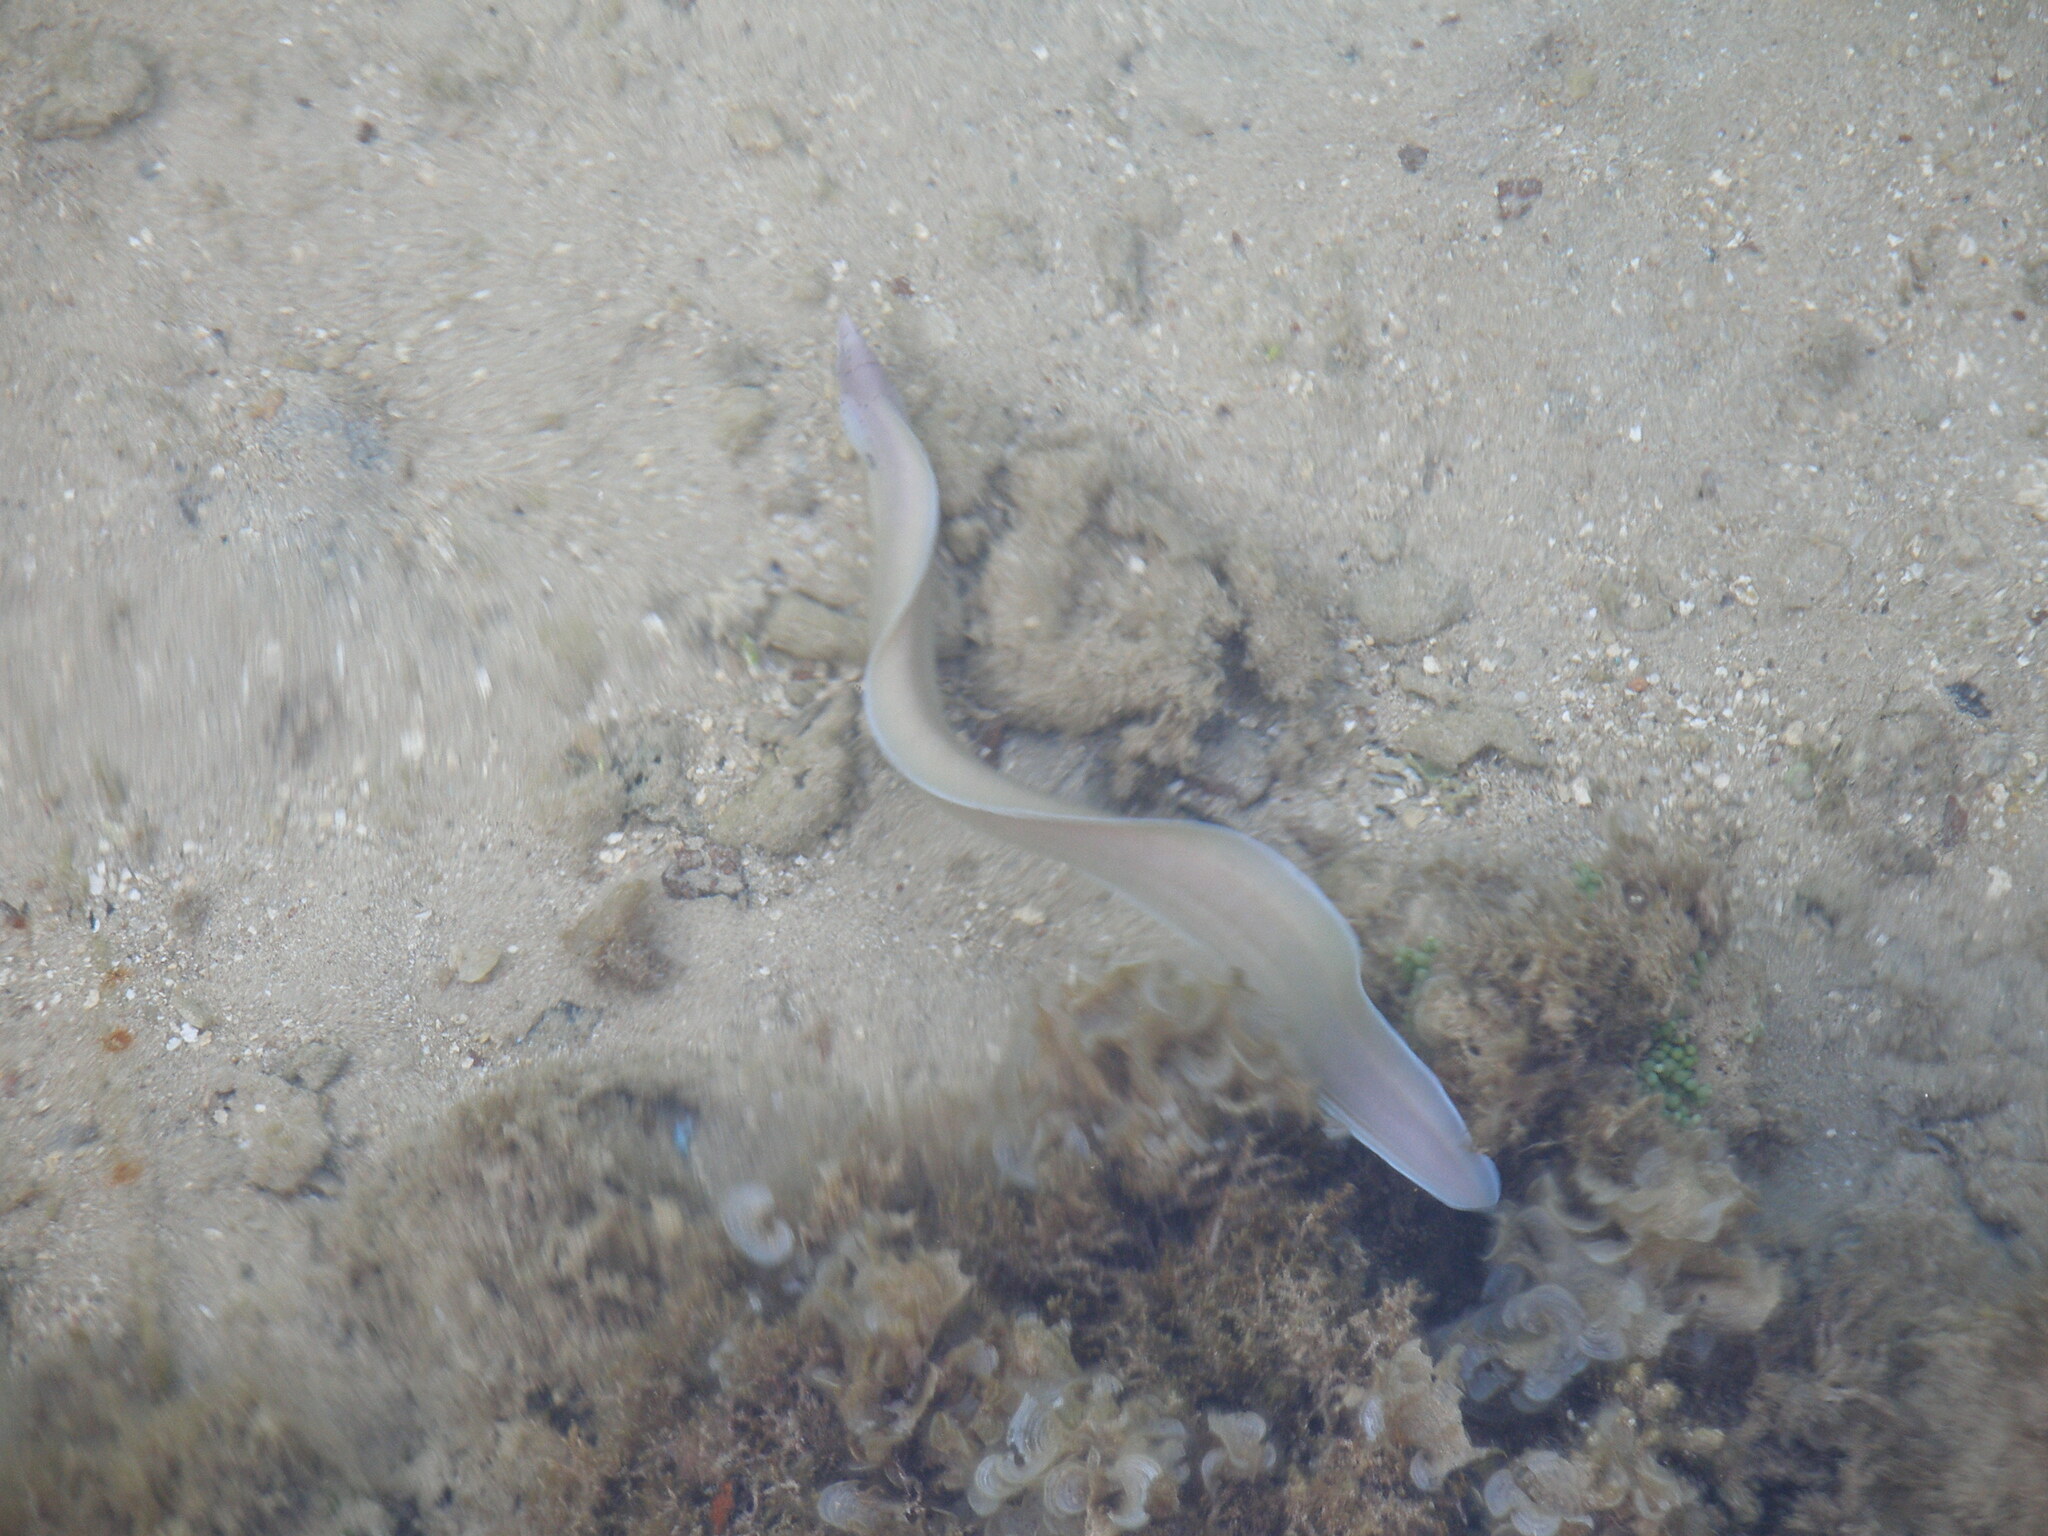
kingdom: Animalia
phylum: Chordata
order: Anguilliformes
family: Muraenidae
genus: Gymnothorax
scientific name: Gymnothorax griseus
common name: Geometric moray
